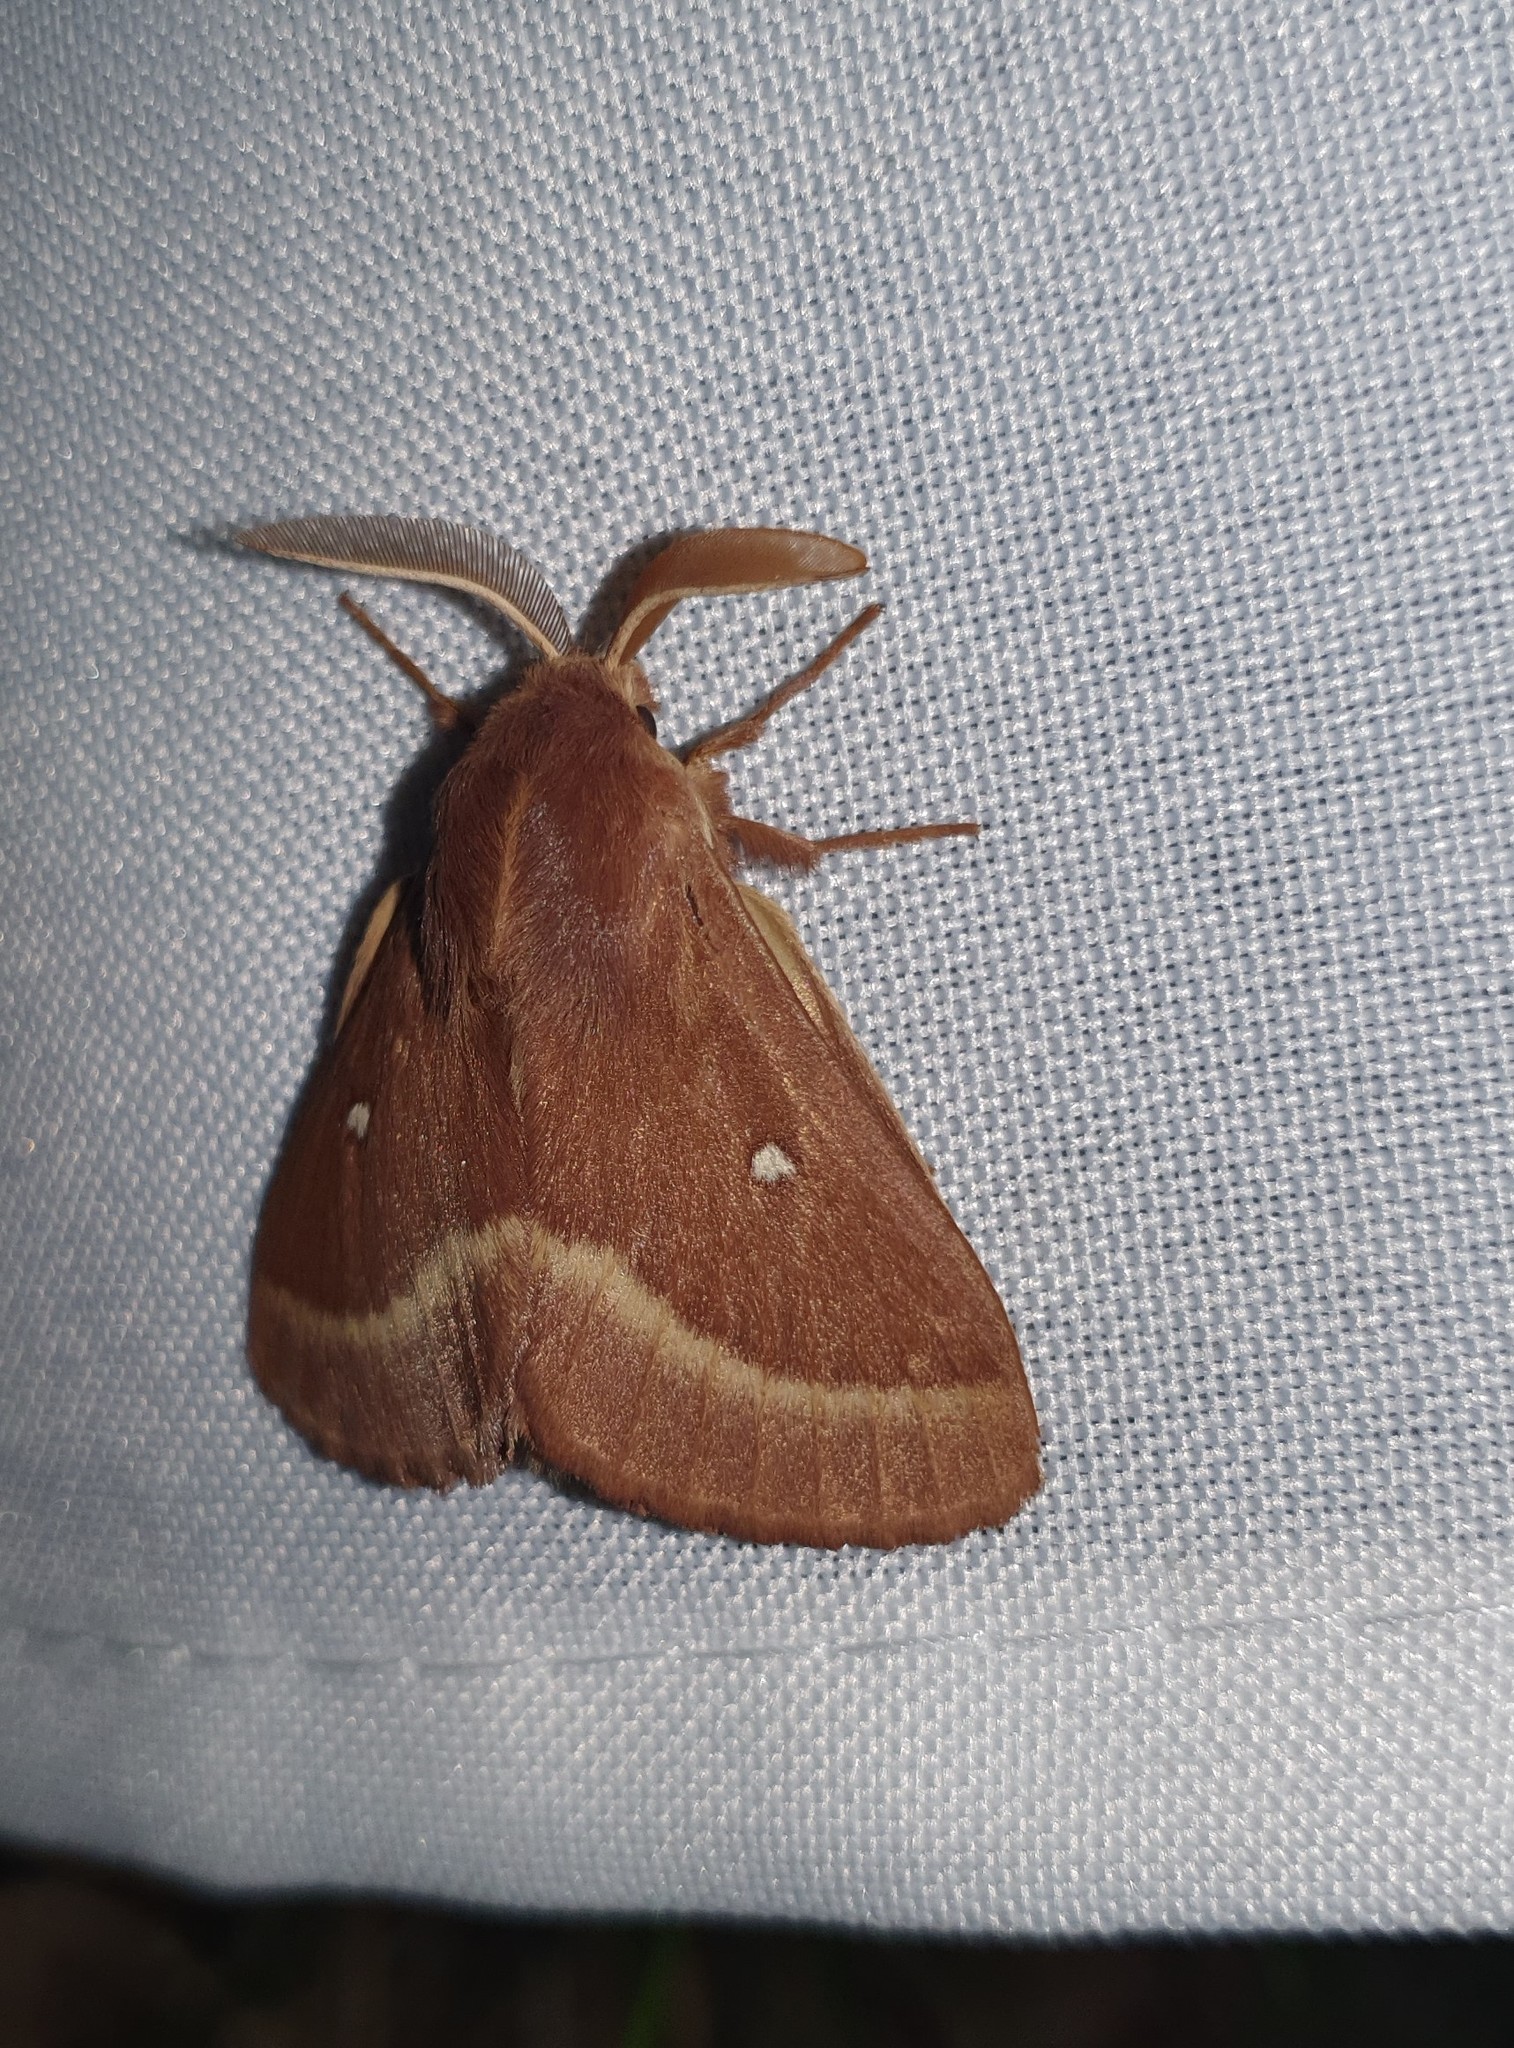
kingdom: Animalia
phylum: Arthropoda
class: Insecta
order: Lepidoptera
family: Lasiocampidae
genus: Lasiocampa
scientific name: Lasiocampa trifolii
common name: Grass eggar
